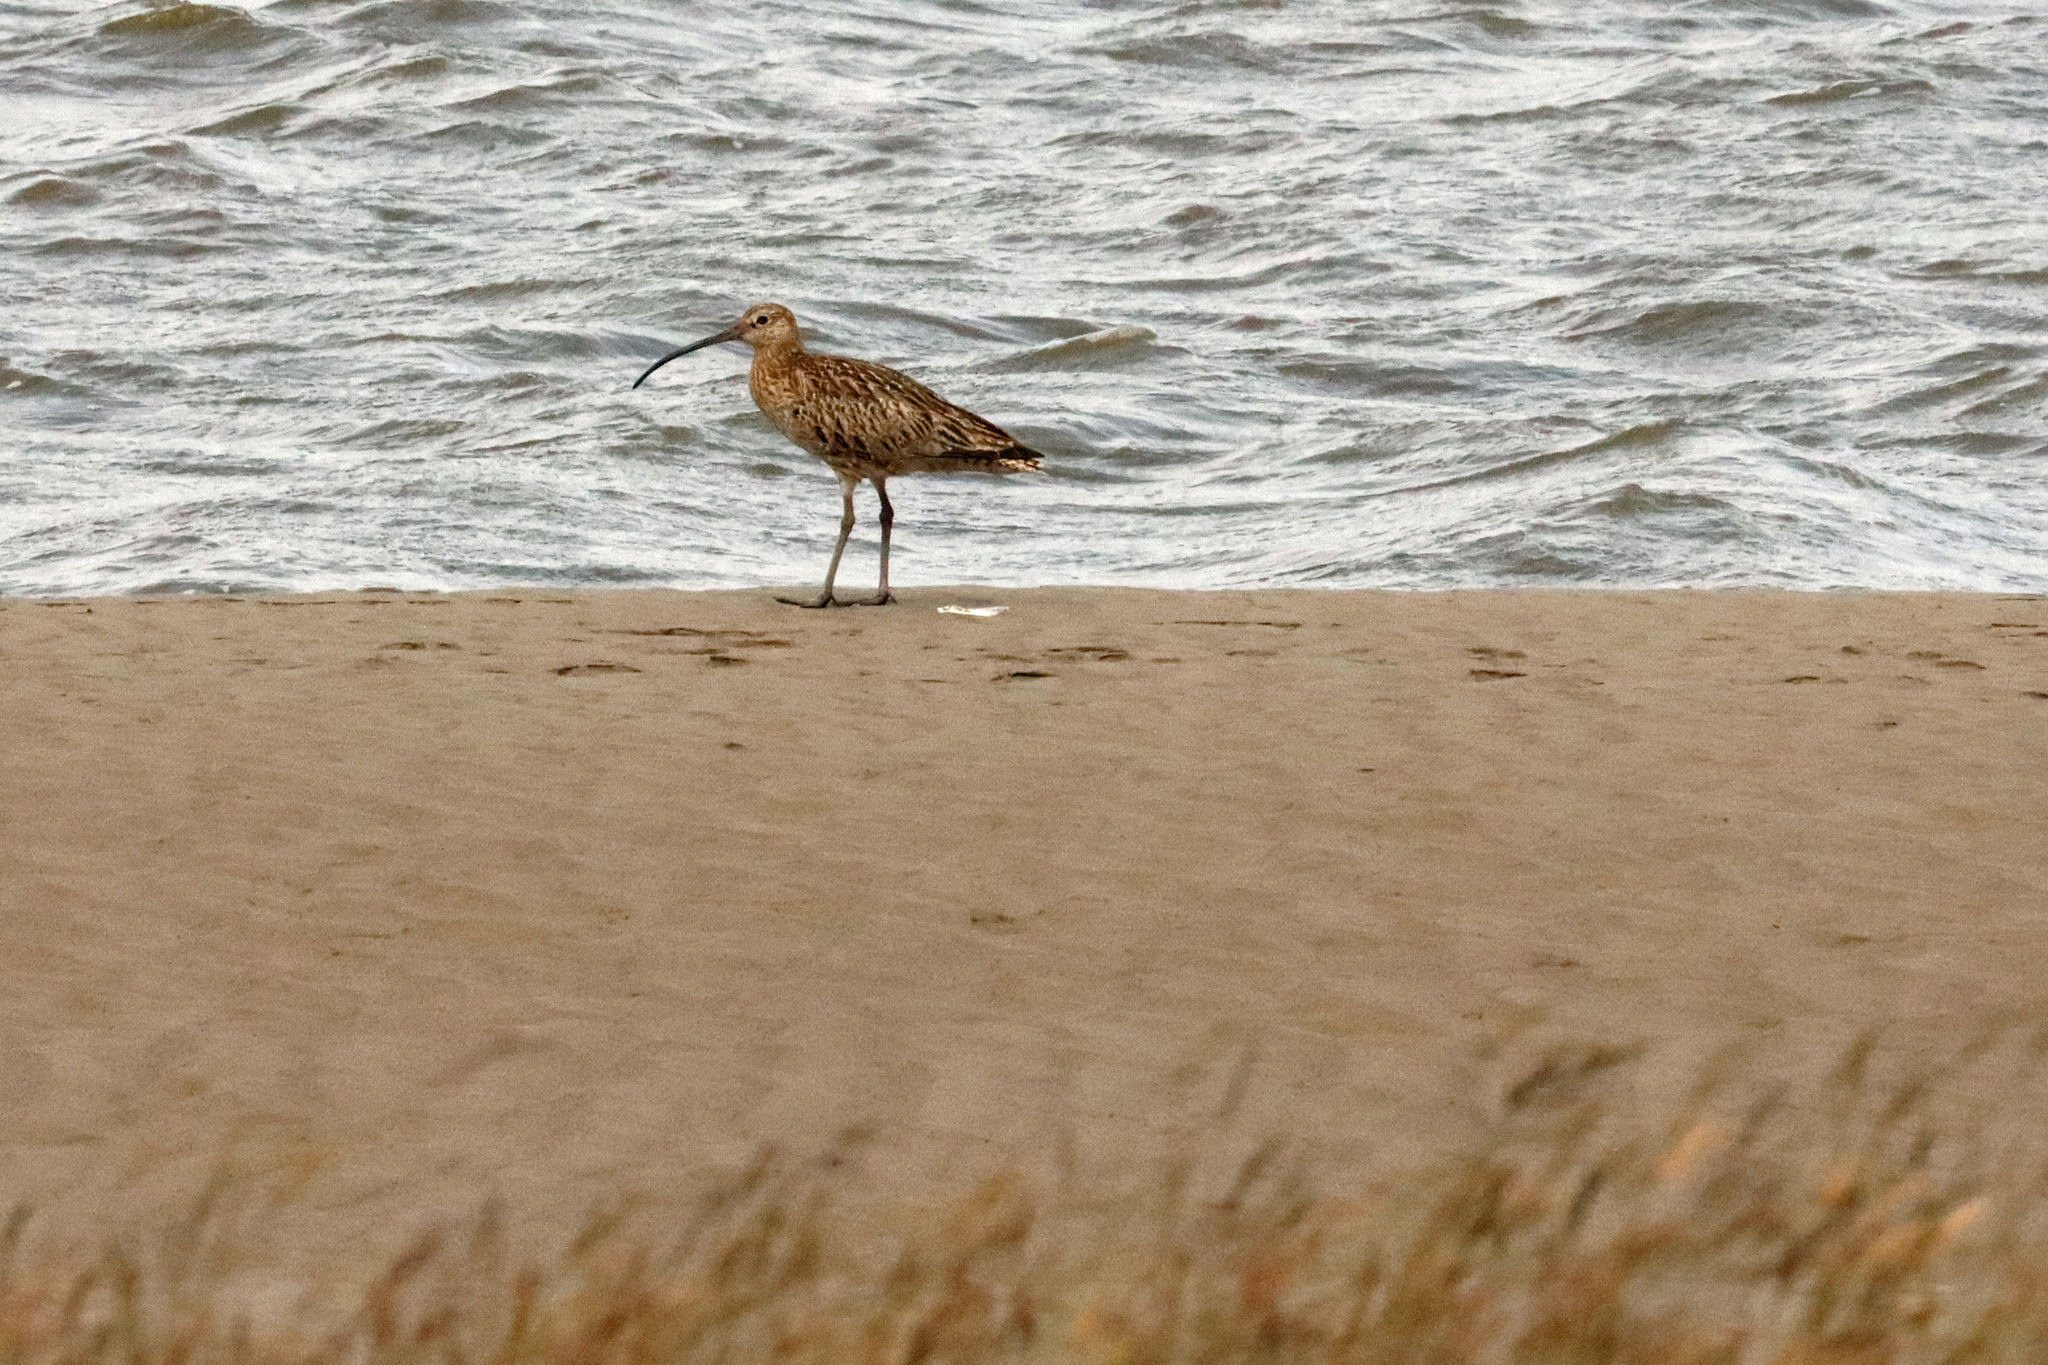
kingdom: Animalia
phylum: Chordata
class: Aves
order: Charadriiformes
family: Scolopacidae
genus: Numenius
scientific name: Numenius arquata
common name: Eurasian curlew
